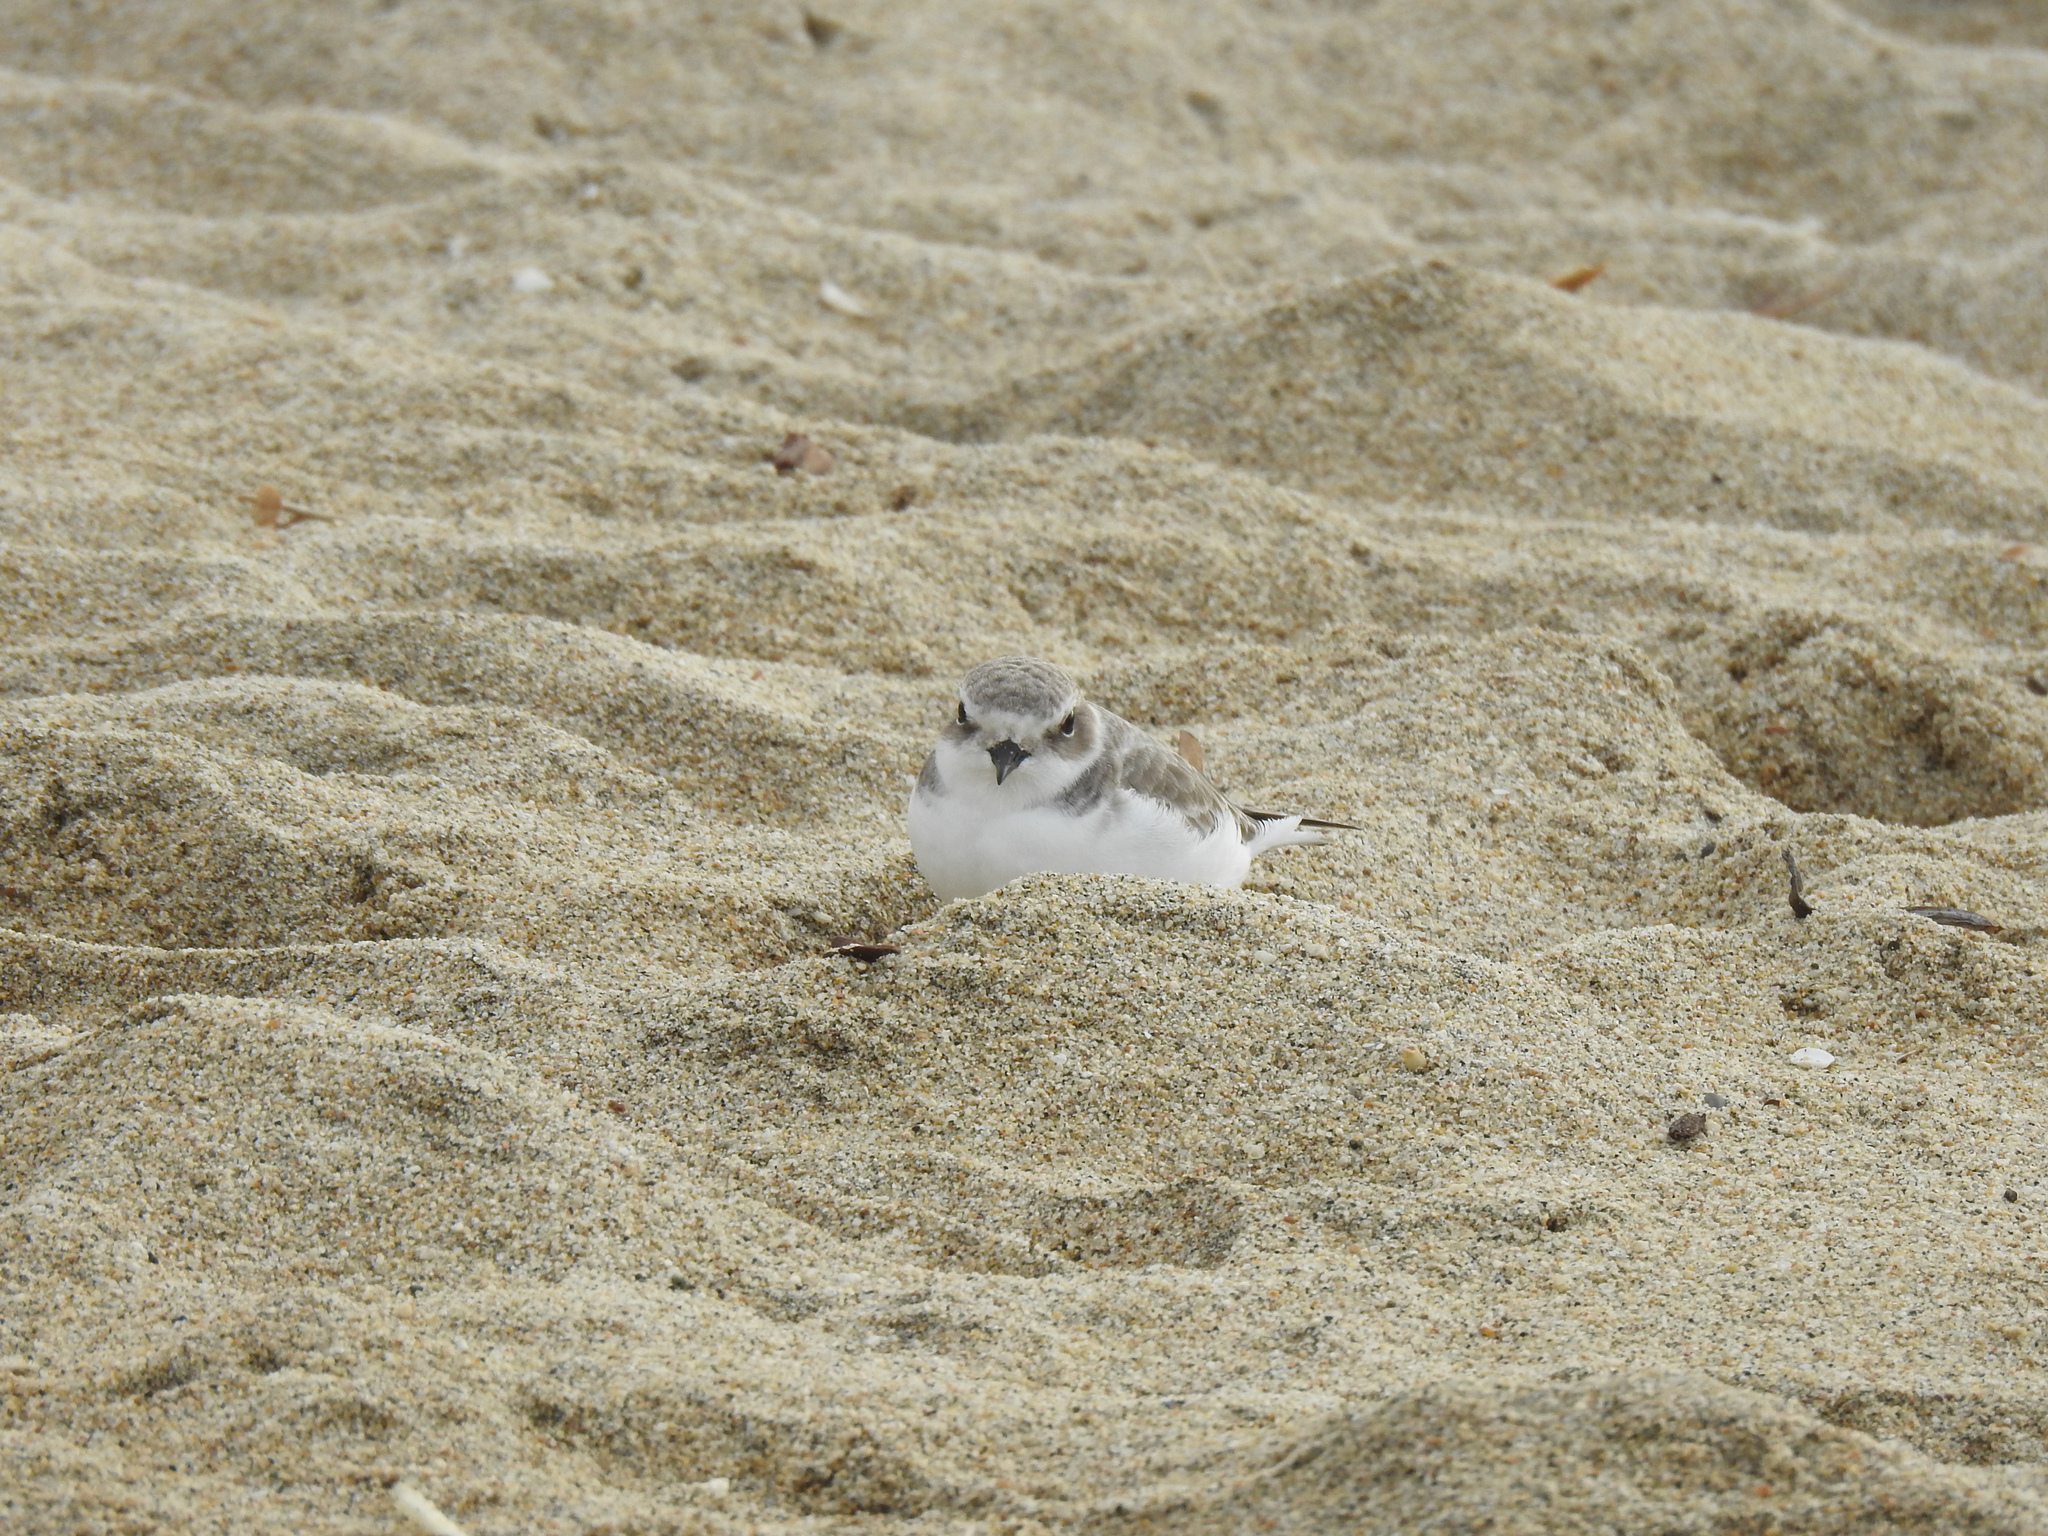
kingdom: Animalia
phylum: Chordata
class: Aves
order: Charadriiformes
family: Charadriidae
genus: Anarhynchus
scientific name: Anarhynchus
